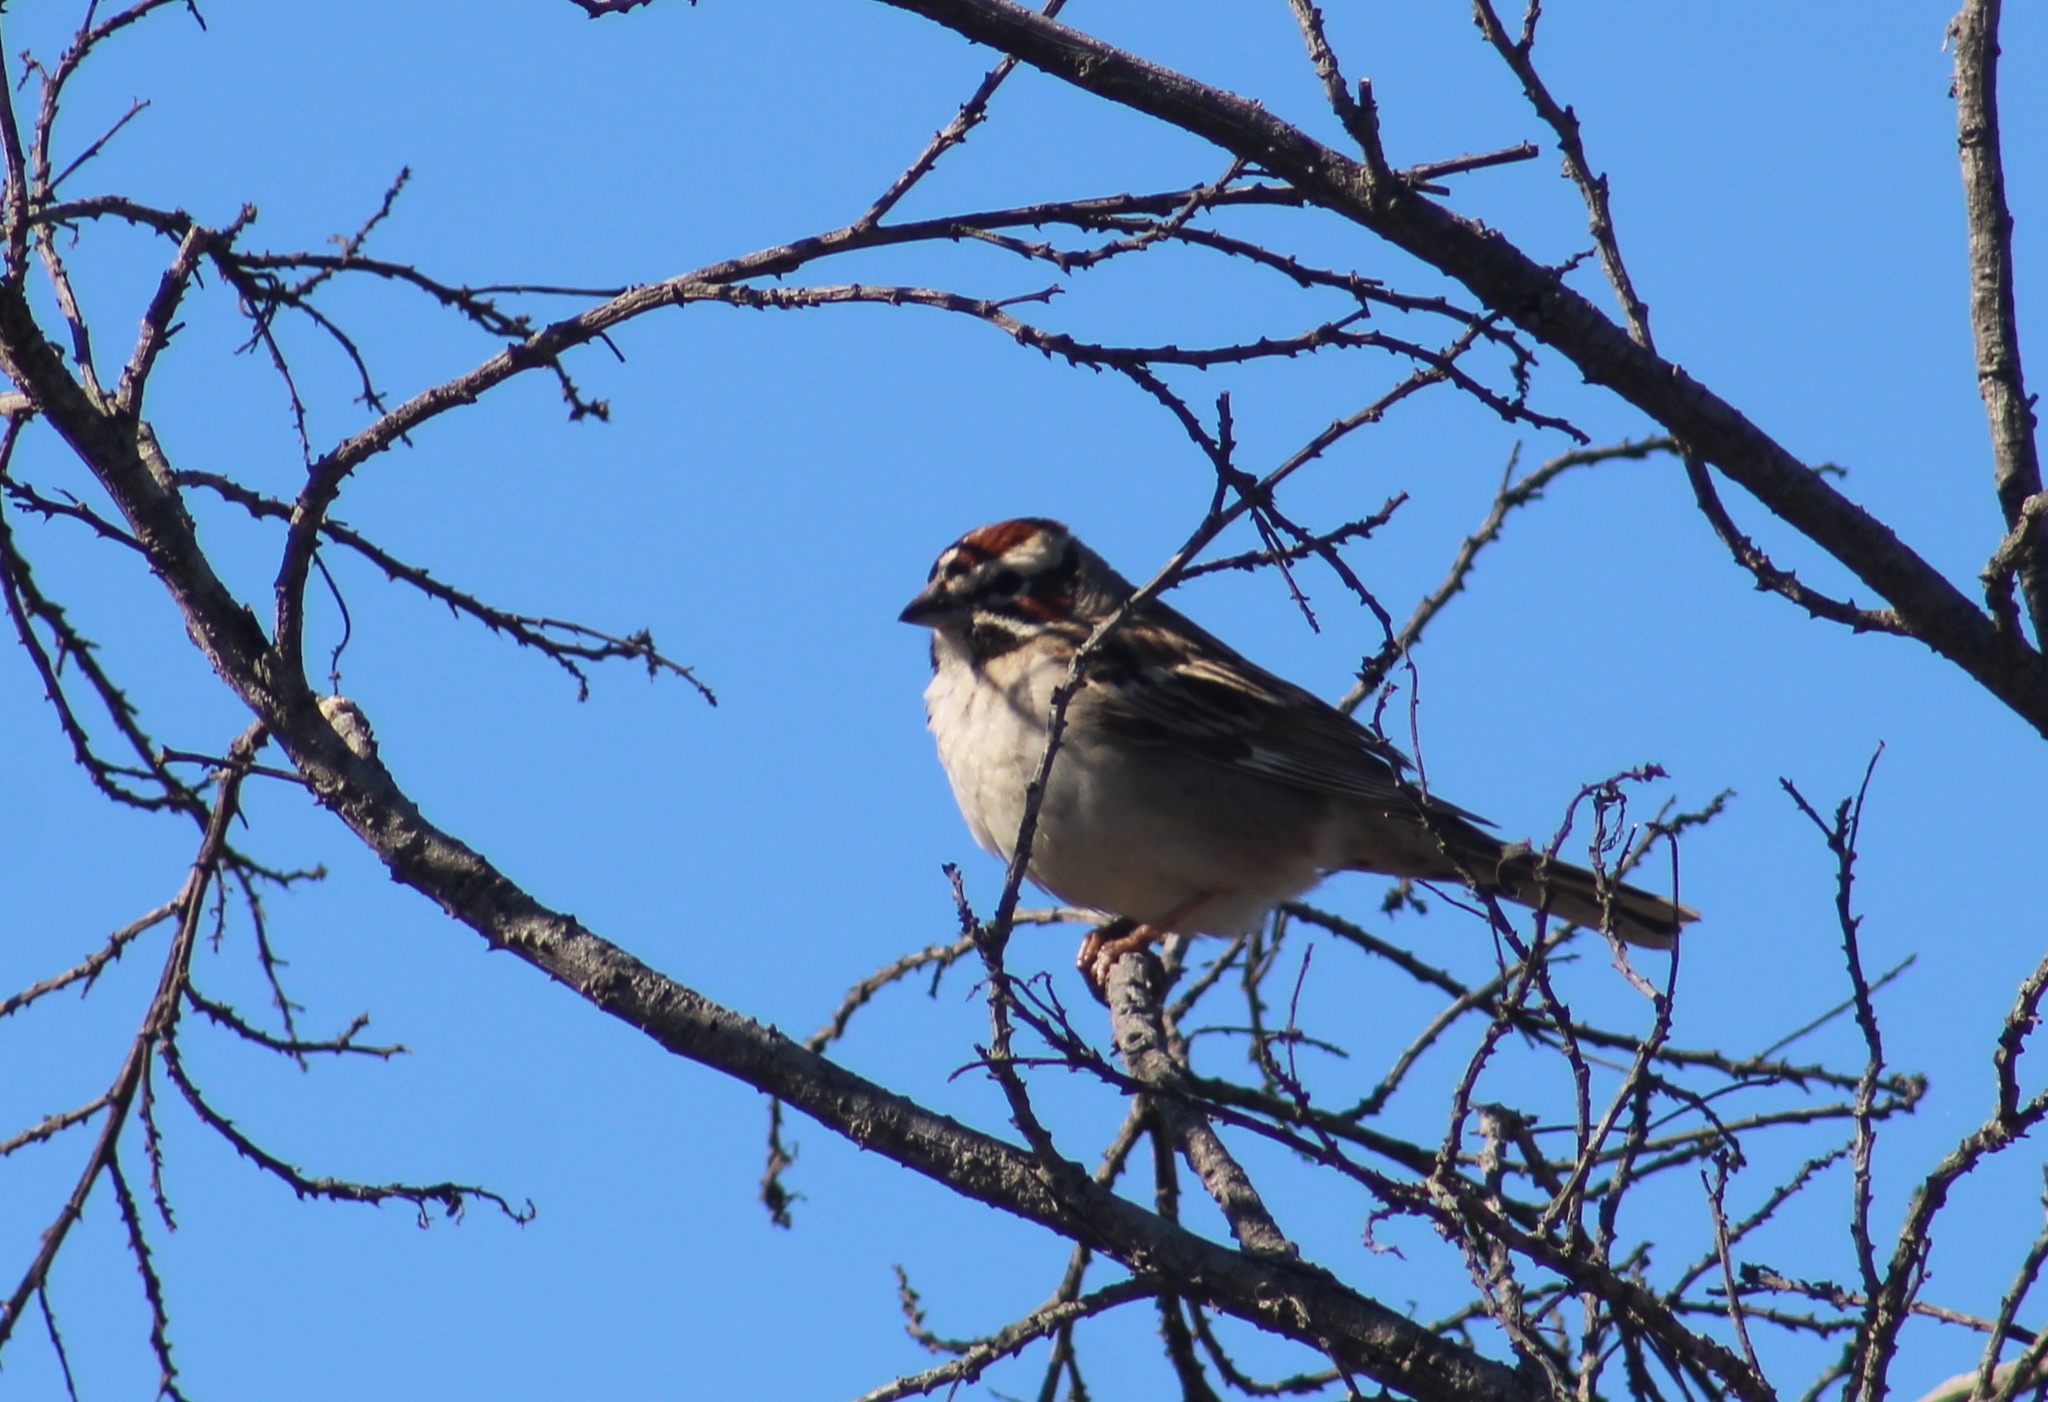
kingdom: Animalia
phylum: Chordata
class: Aves
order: Passeriformes
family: Passerellidae
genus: Chondestes
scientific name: Chondestes grammacus
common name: Lark sparrow
